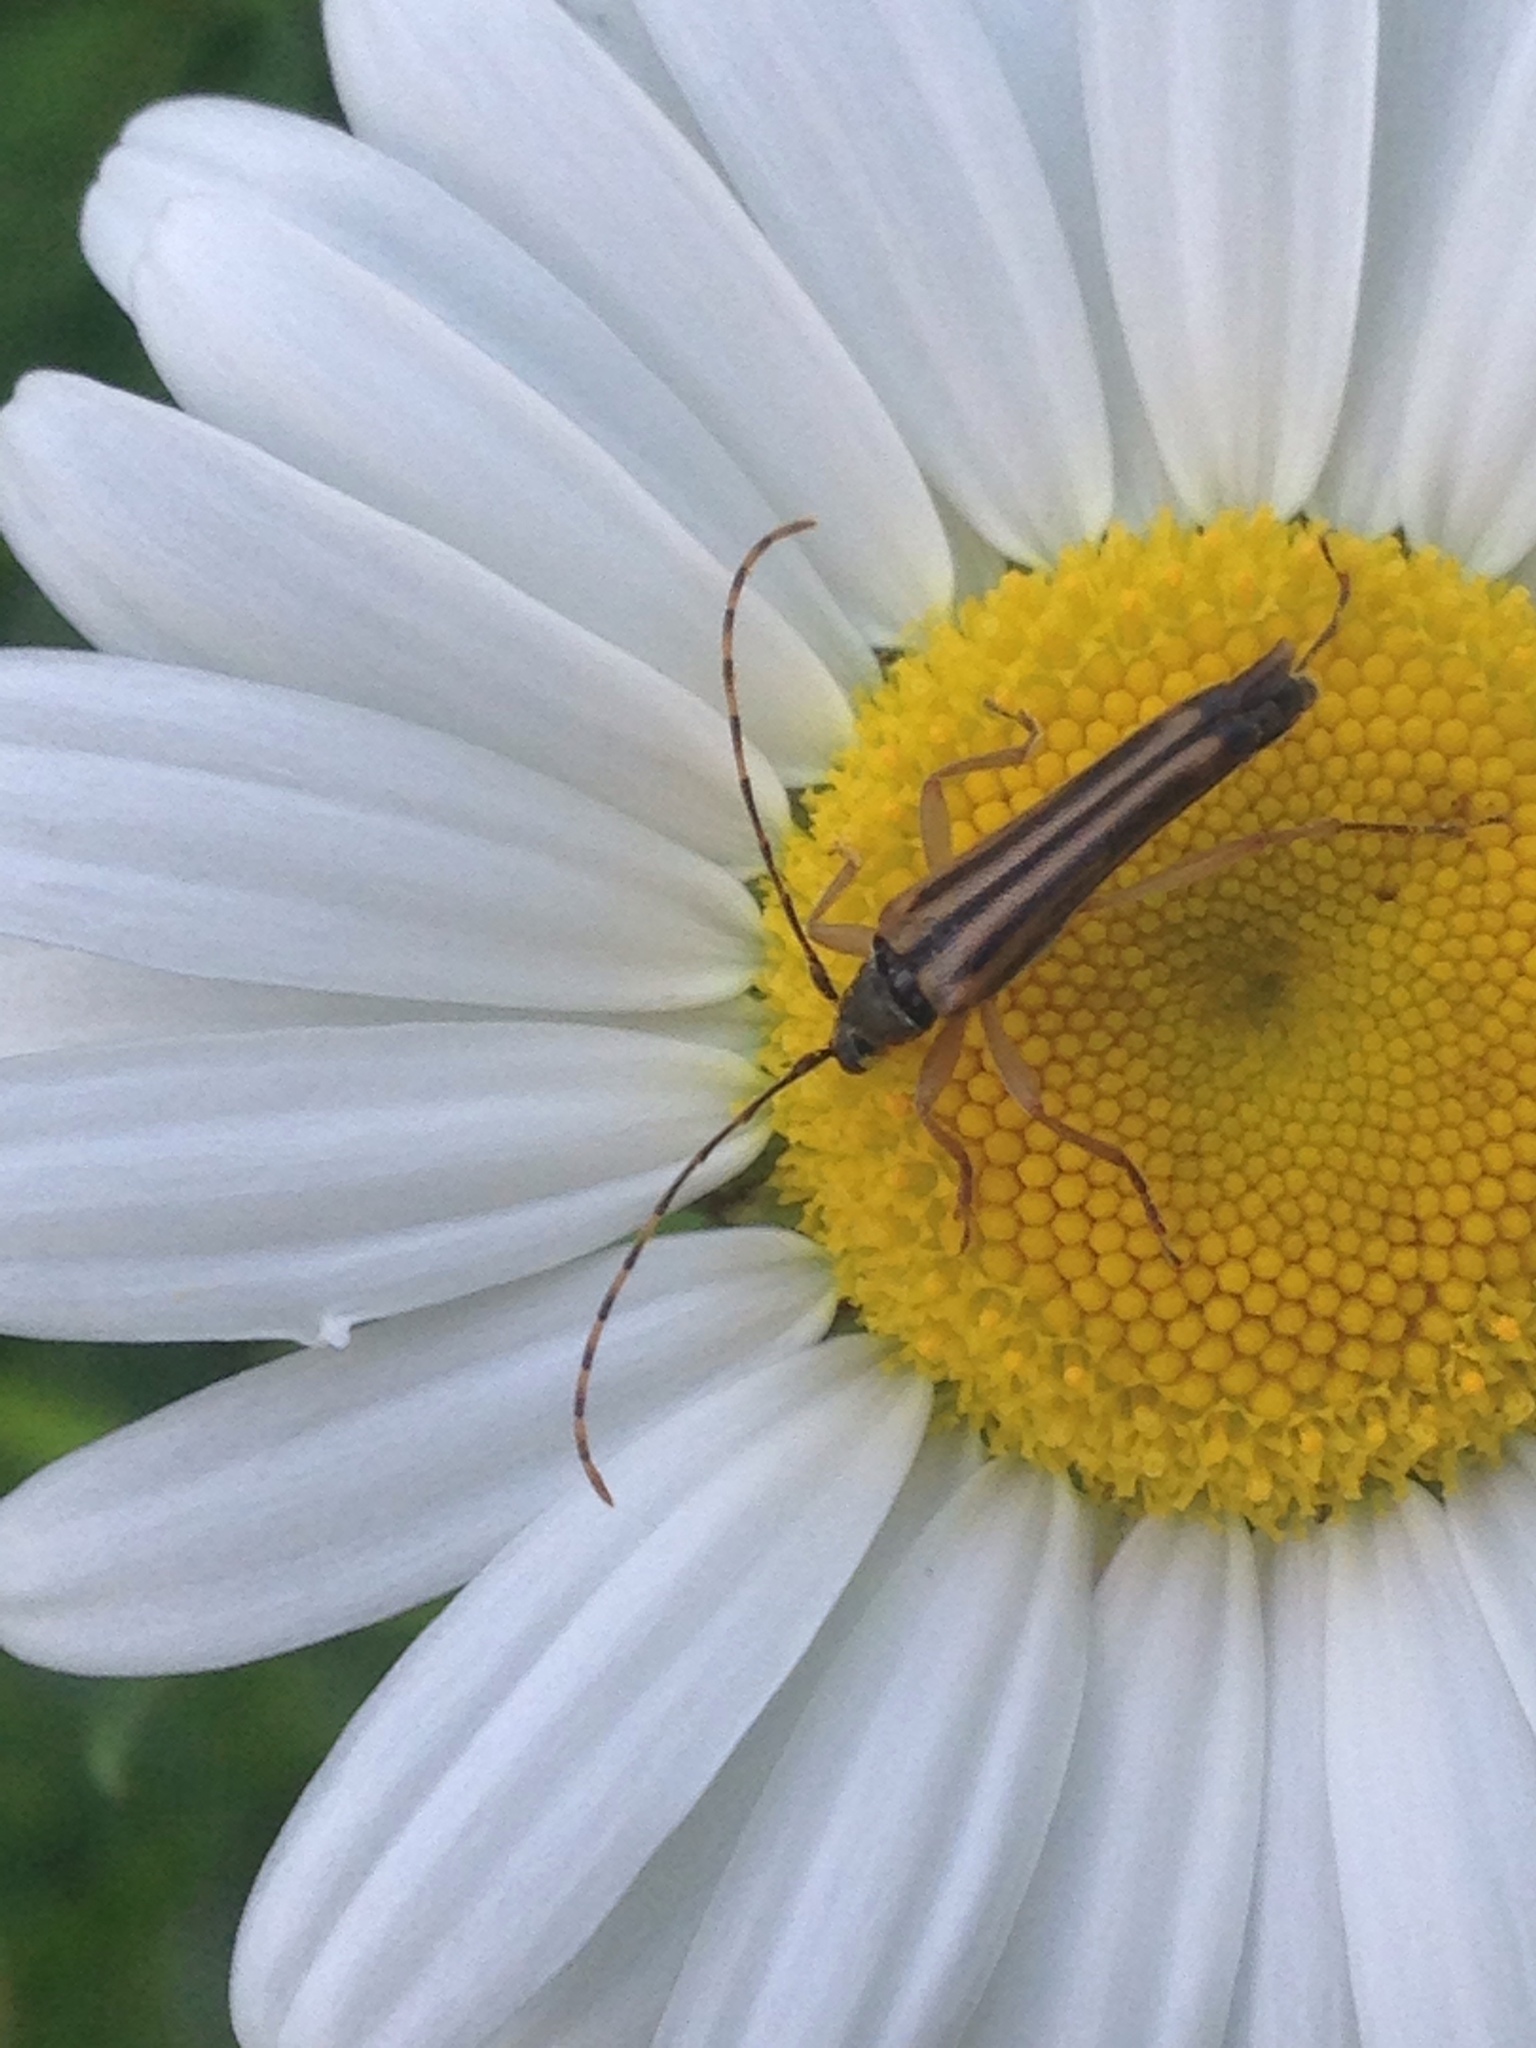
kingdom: Animalia
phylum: Arthropoda
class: Insecta
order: Coleoptera
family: Cerambycidae
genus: Analeptura
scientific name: Analeptura lineola
